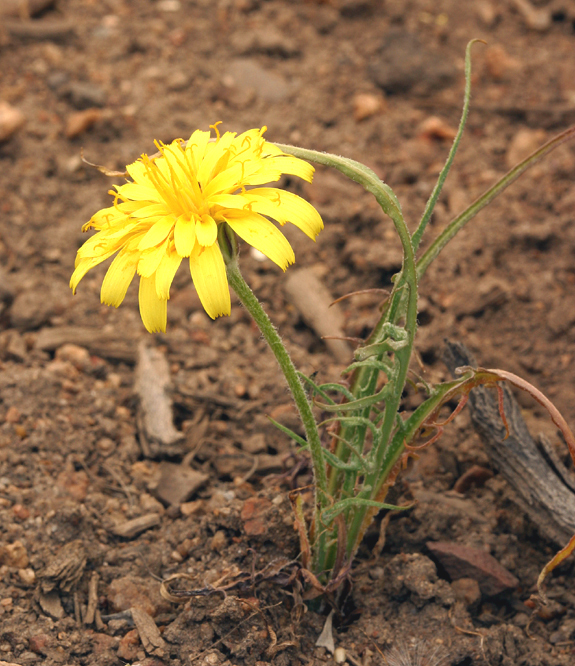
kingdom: Plantae
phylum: Tracheophyta
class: Magnoliopsida
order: Asterales
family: Asteraceae
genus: Agoseris
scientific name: Agoseris parviflora
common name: Steppe agoseris
